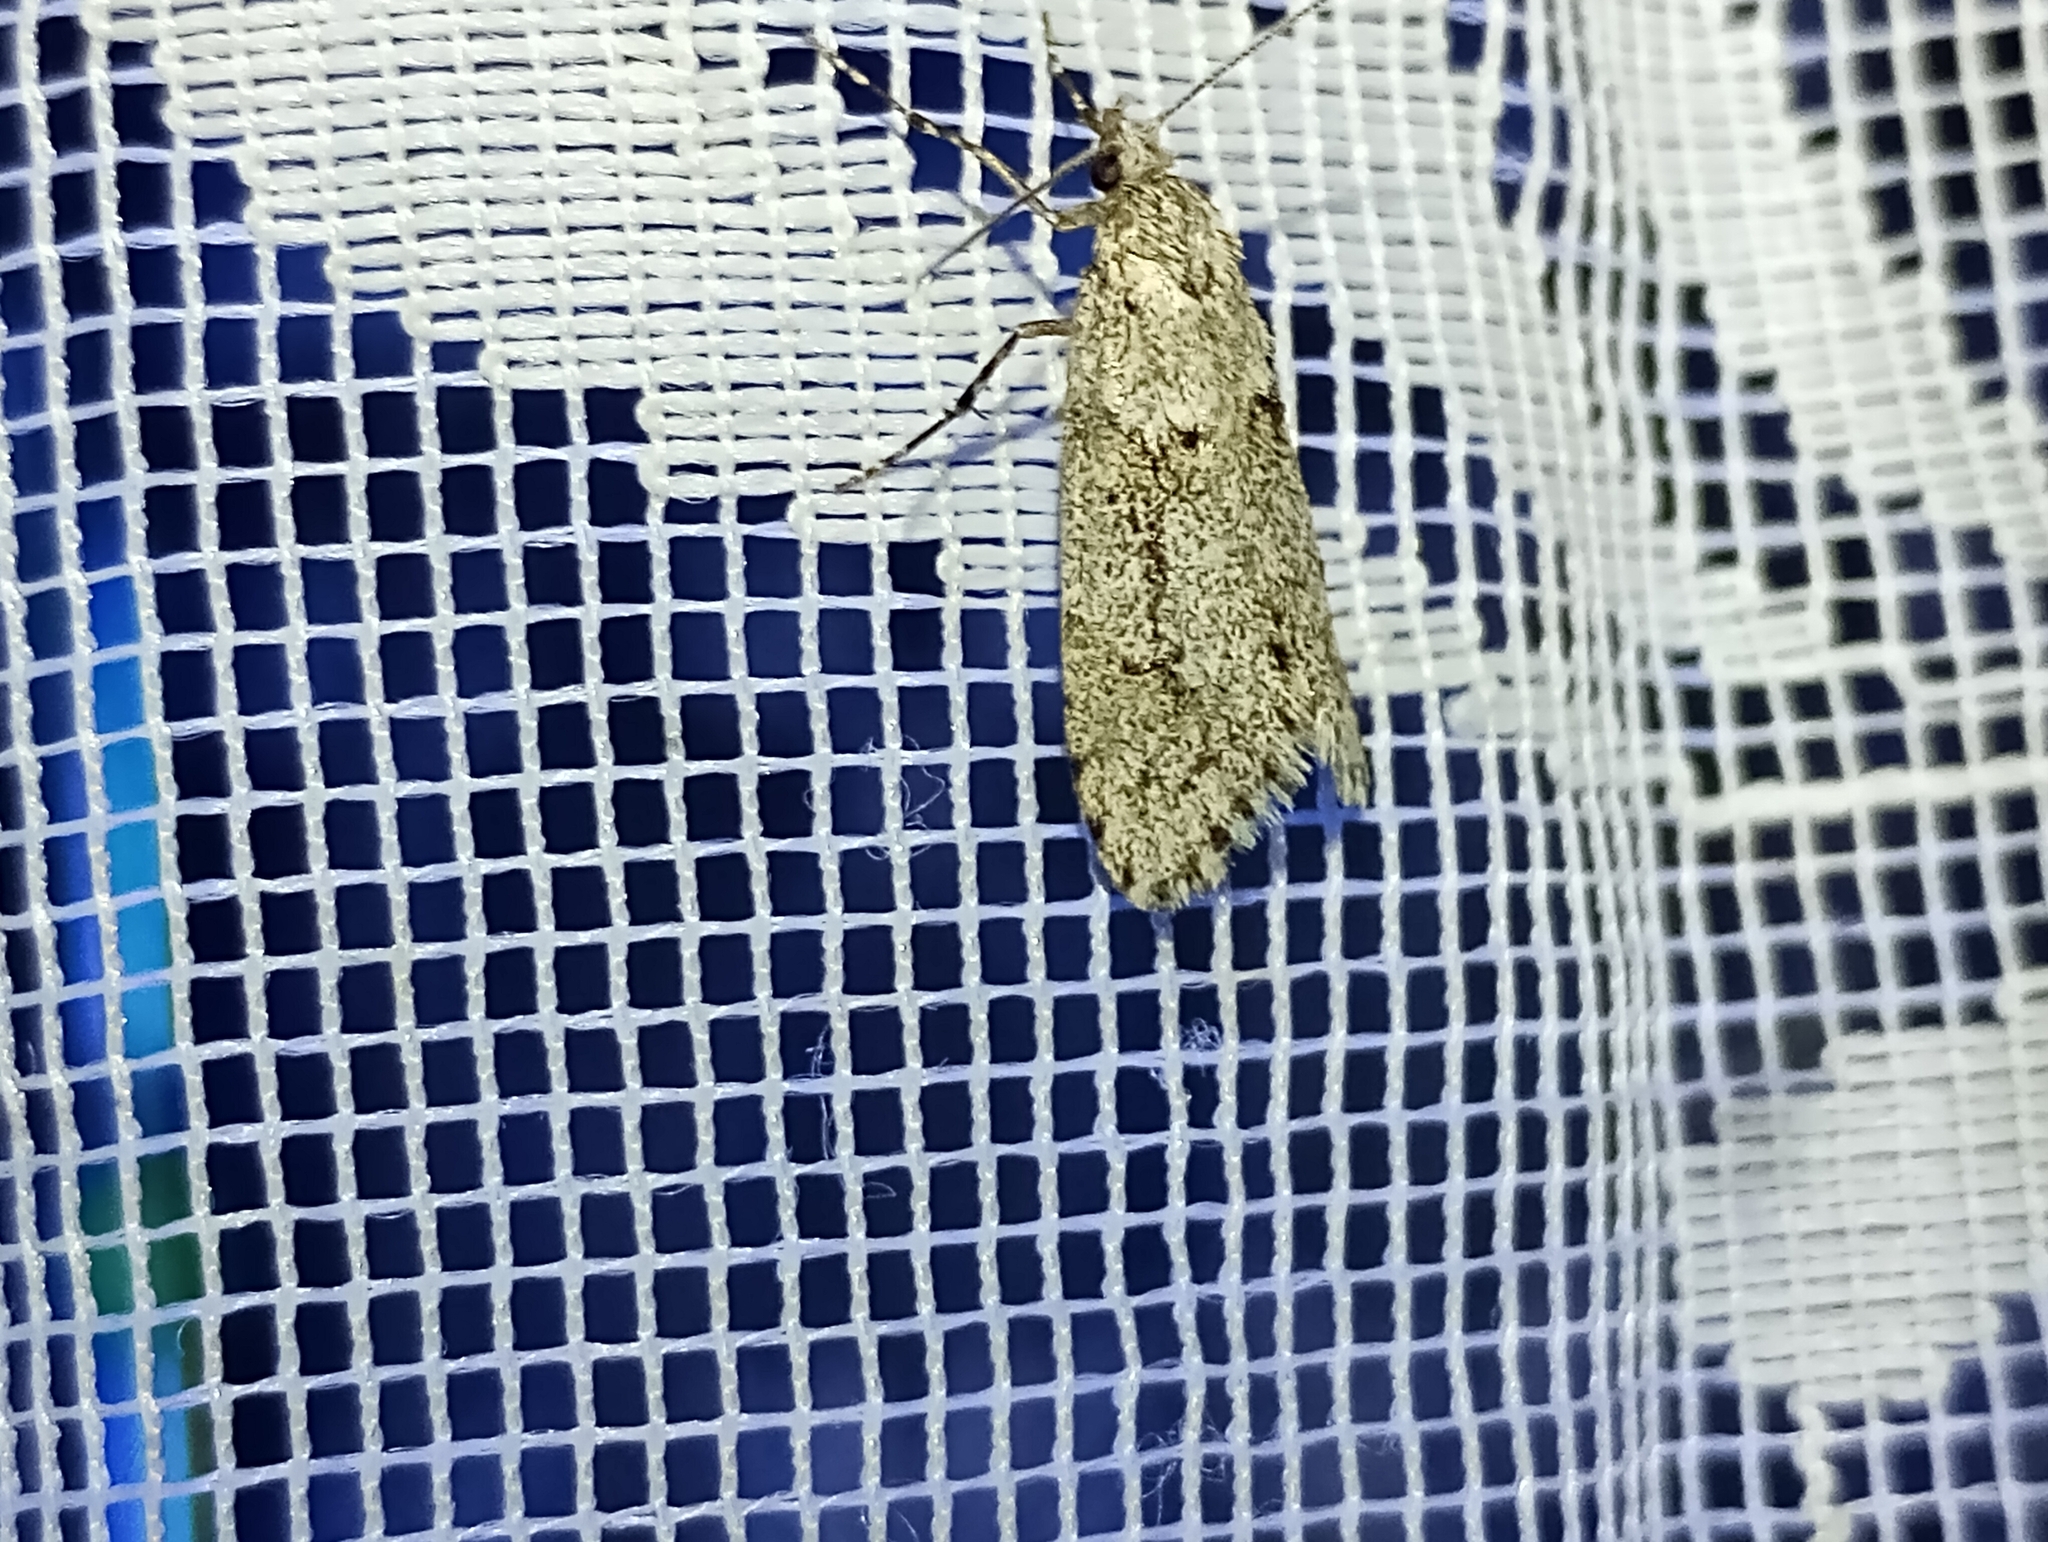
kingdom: Animalia
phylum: Arthropoda
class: Insecta
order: Lepidoptera
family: Lypusidae
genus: Diurnea
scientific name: Diurnea fagella
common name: March tubic
